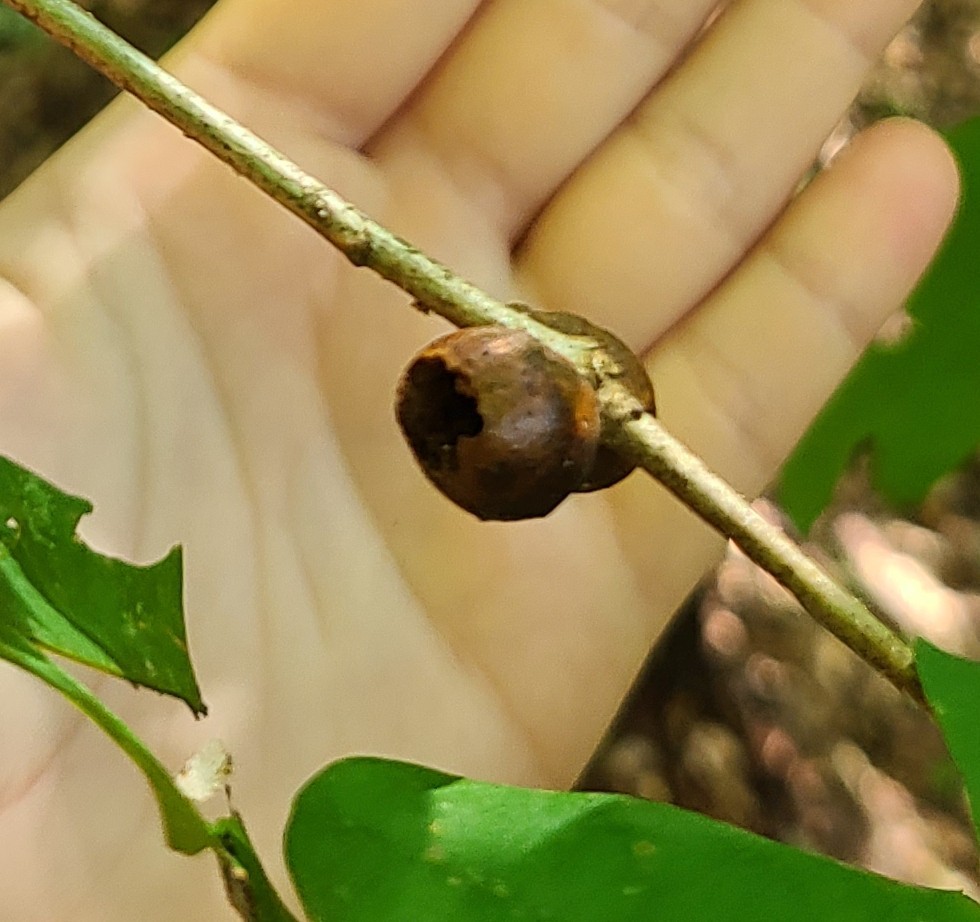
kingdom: Animalia
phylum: Arthropoda
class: Insecta
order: Hymenoptera
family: Cynipidae
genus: Disholcaspis
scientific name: Disholcaspis quercusglobulus
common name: Round bullet gall wasp
